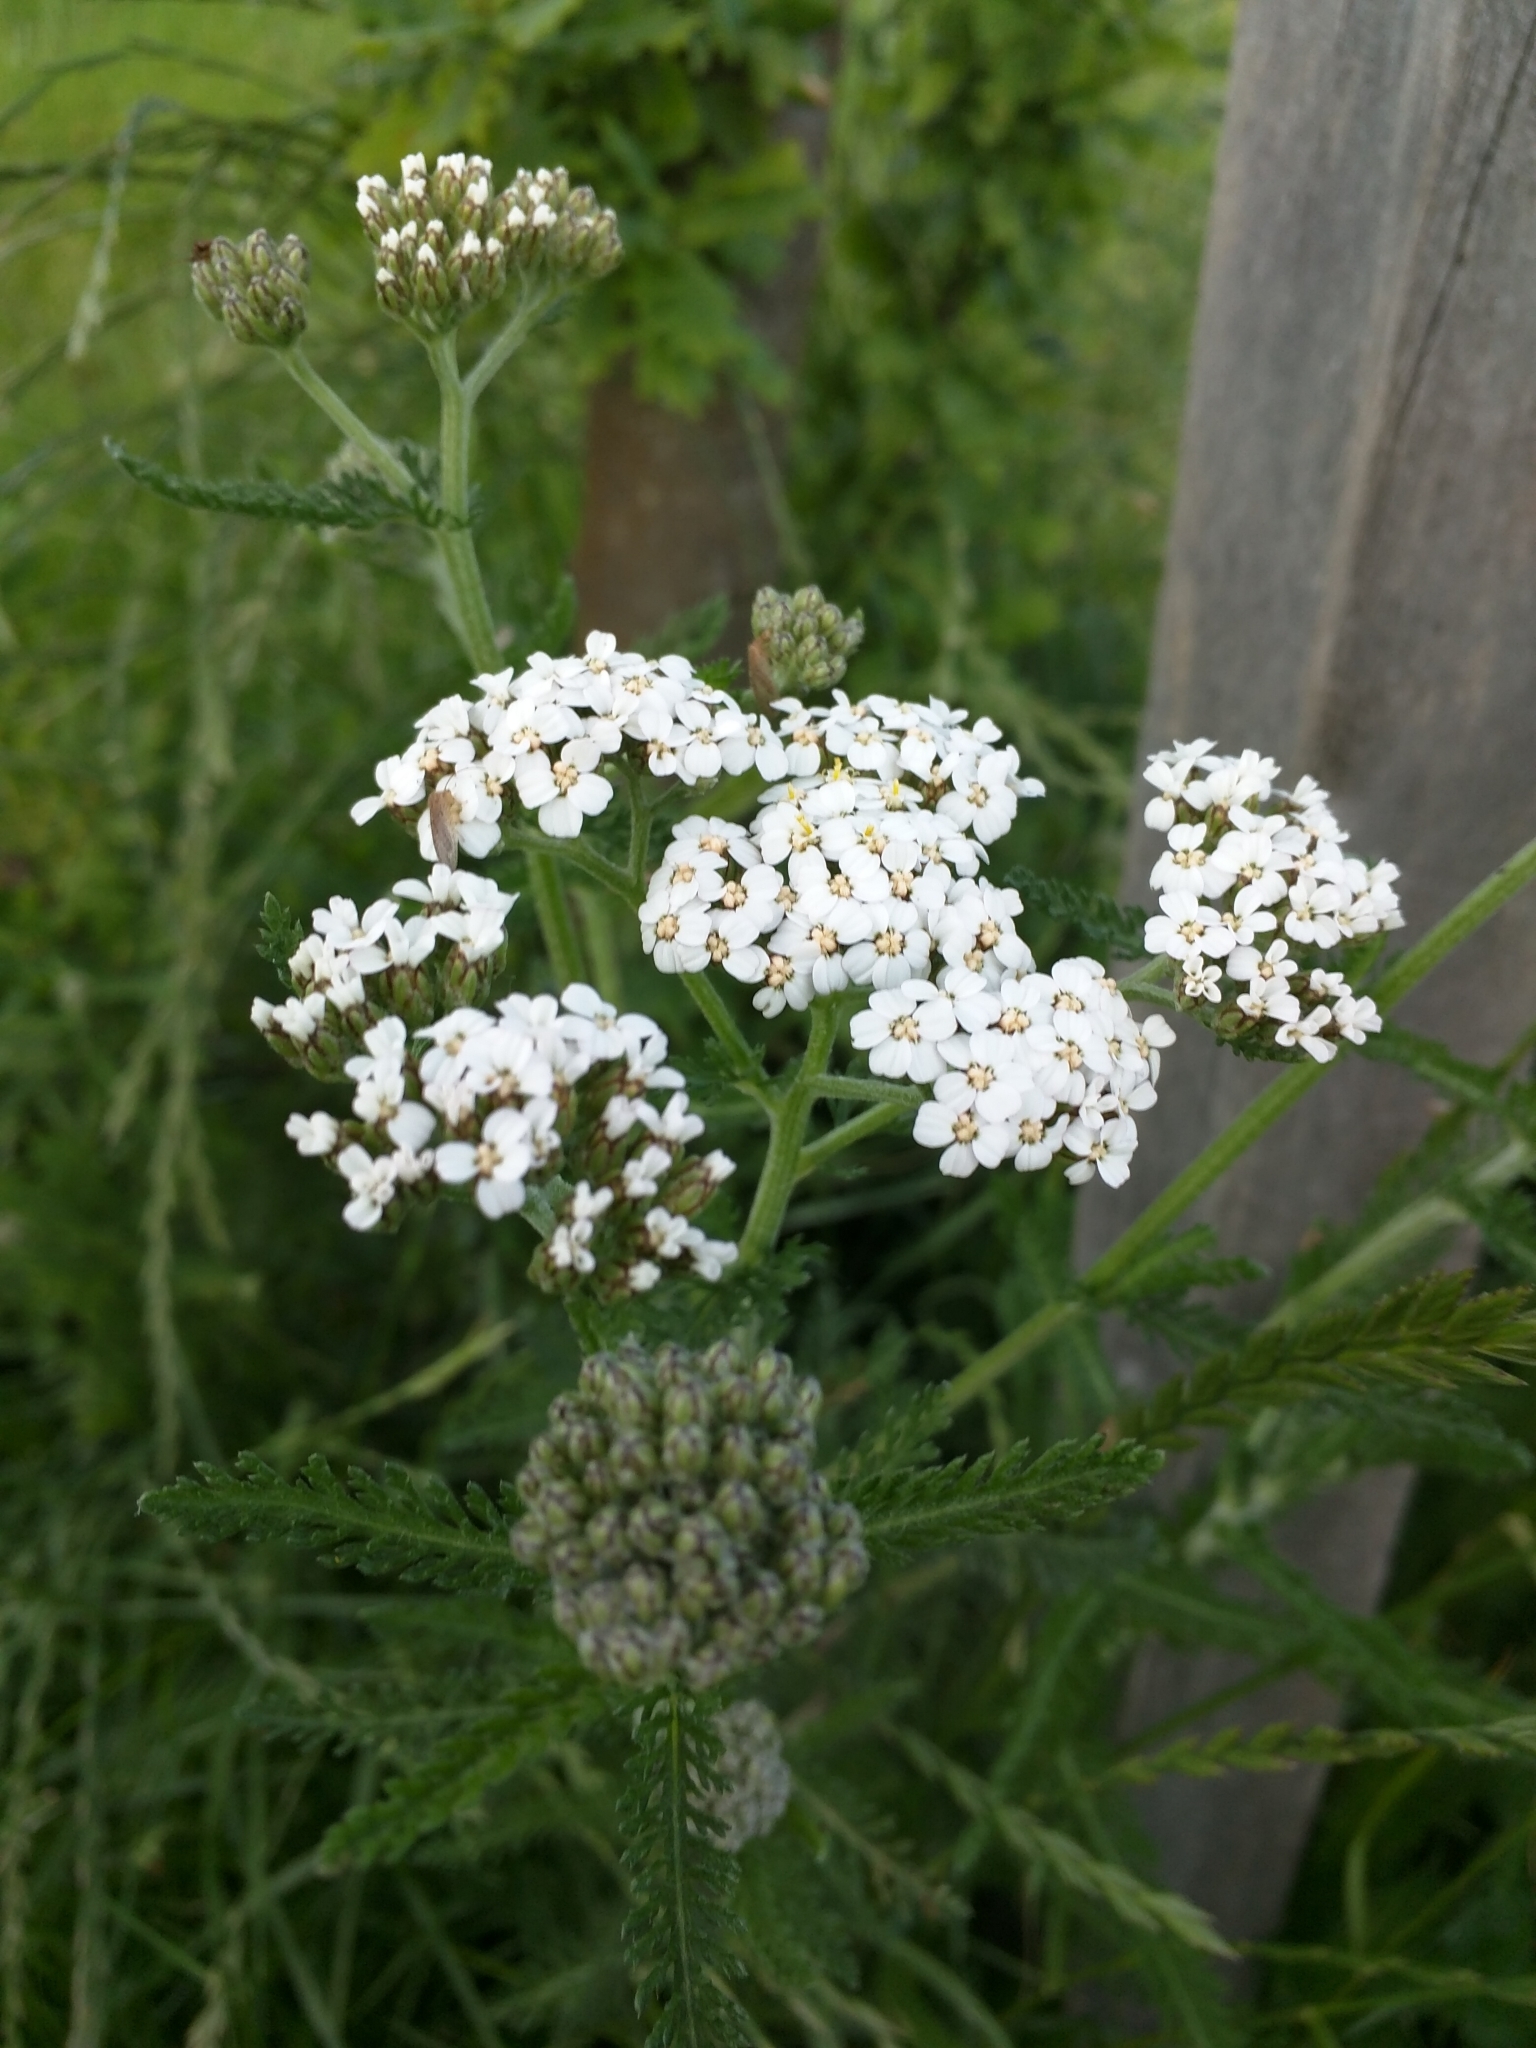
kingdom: Plantae
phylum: Tracheophyta
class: Magnoliopsida
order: Asterales
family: Asteraceae
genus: Achillea
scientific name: Achillea millefolium
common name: Yarrow
